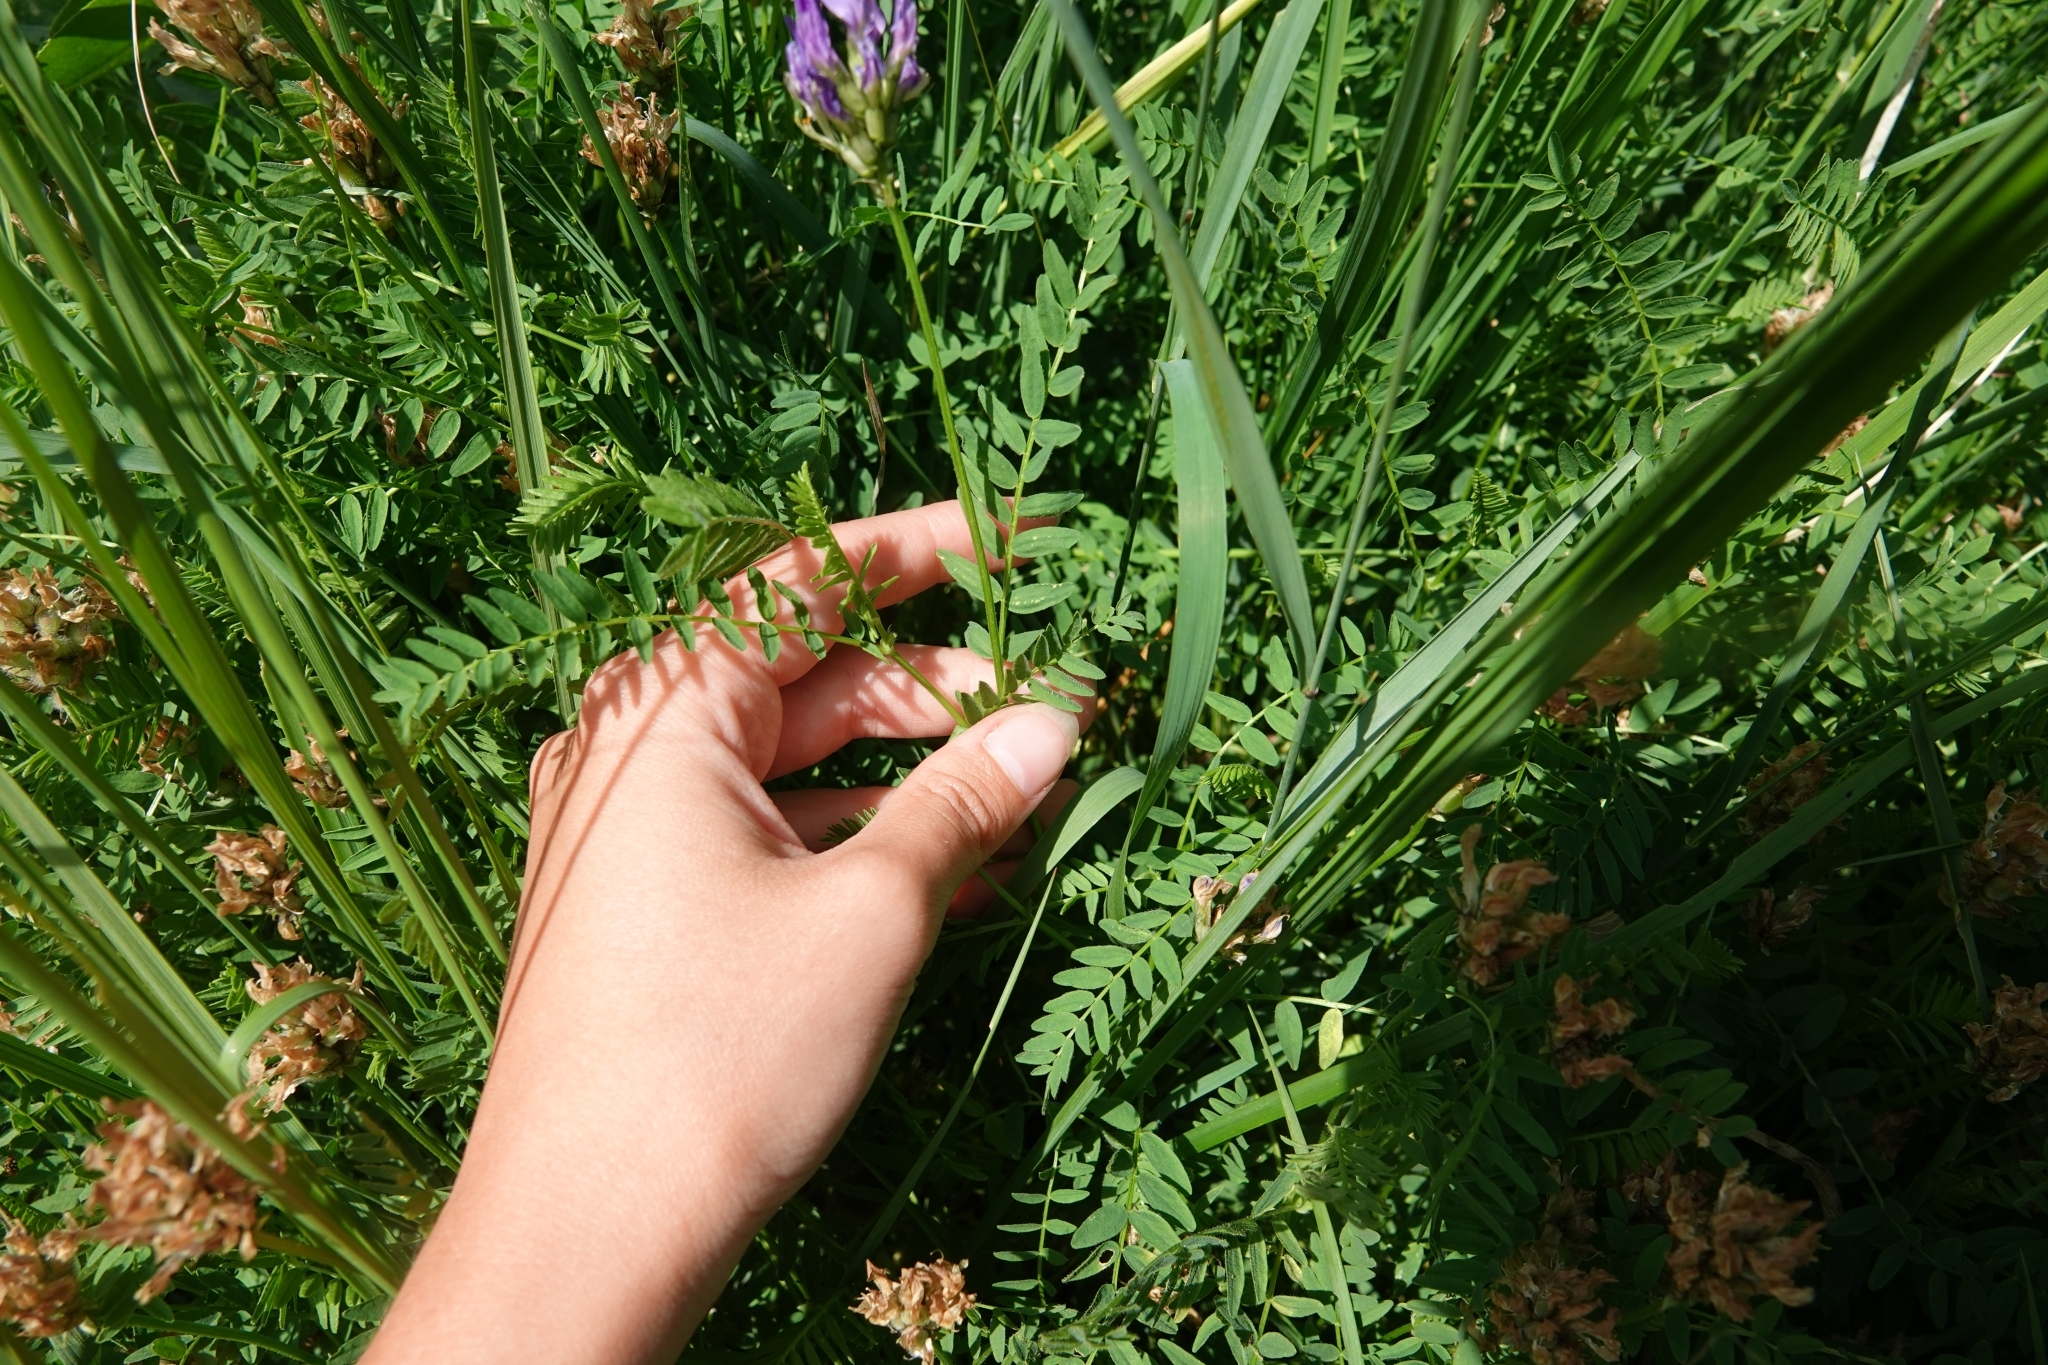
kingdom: Plantae
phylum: Tracheophyta
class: Magnoliopsida
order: Fabales
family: Fabaceae
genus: Astragalus
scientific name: Astragalus danicus
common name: Purple milk-vetch
